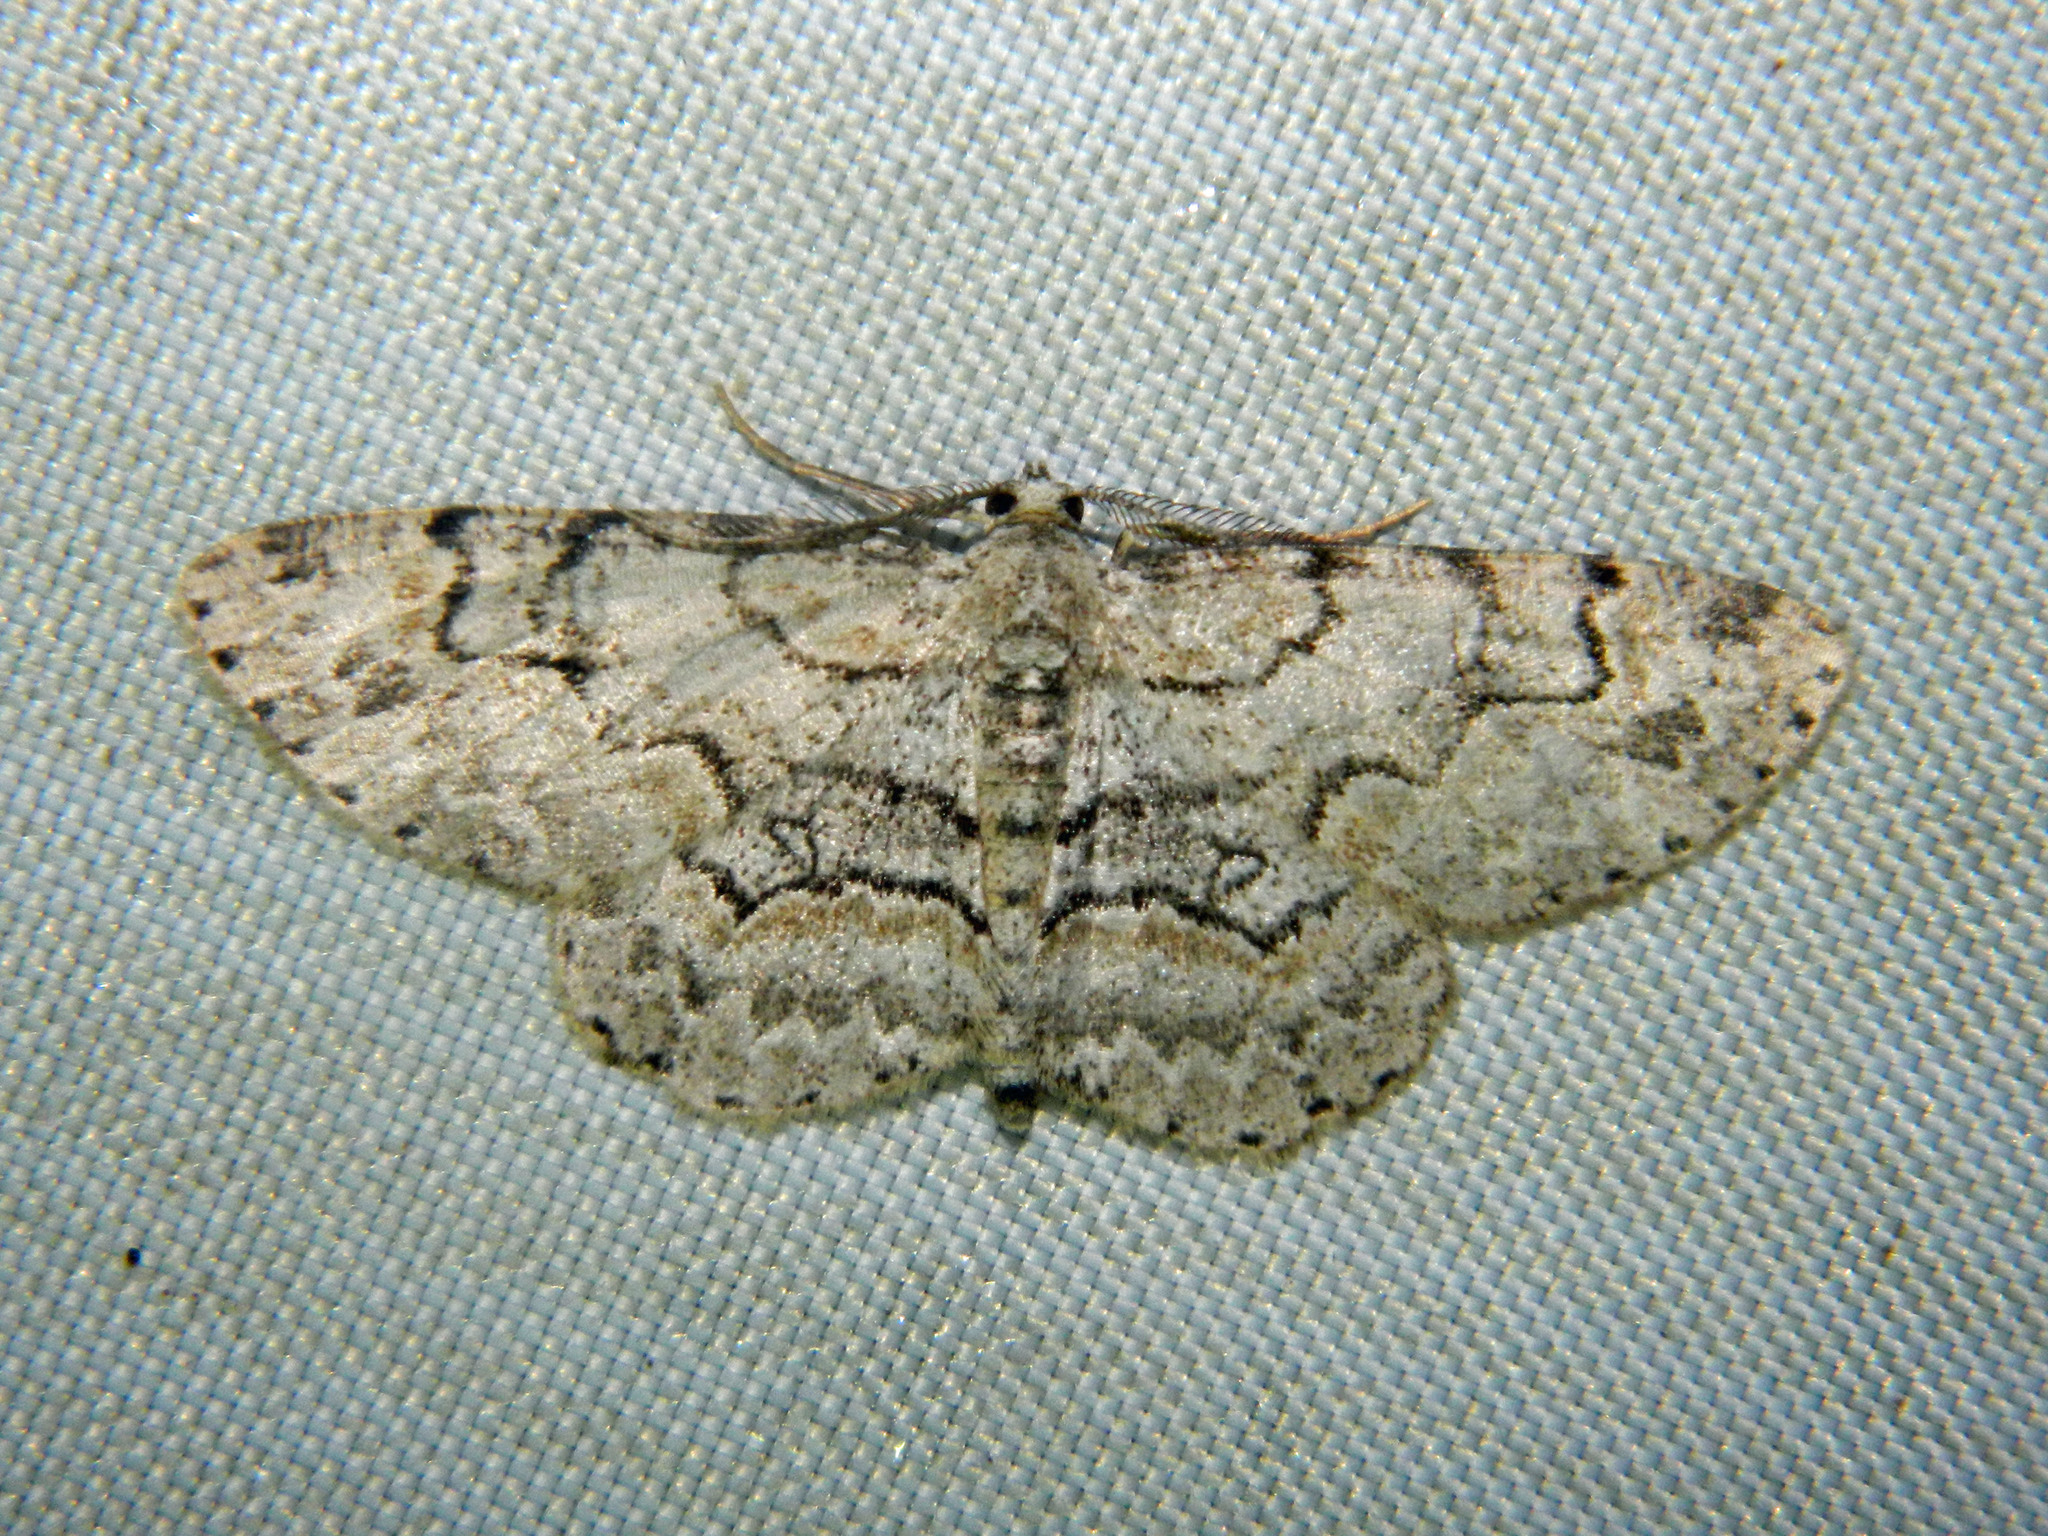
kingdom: Animalia
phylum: Arthropoda
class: Insecta
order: Lepidoptera
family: Geometridae
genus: Iridopsis
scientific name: Iridopsis ephyraria
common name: Pale-winged gray
